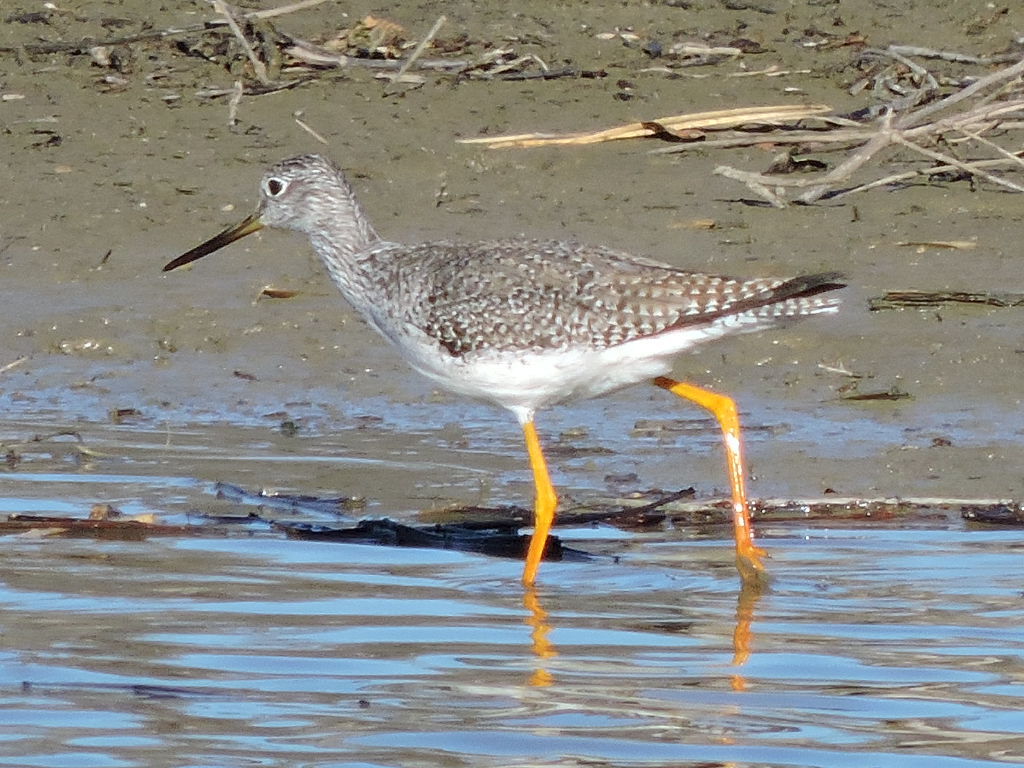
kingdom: Animalia
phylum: Chordata
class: Aves
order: Charadriiformes
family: Scolopacidae
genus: Tringa
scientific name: Tringa melanoleuca
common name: Greater yellowlegs
